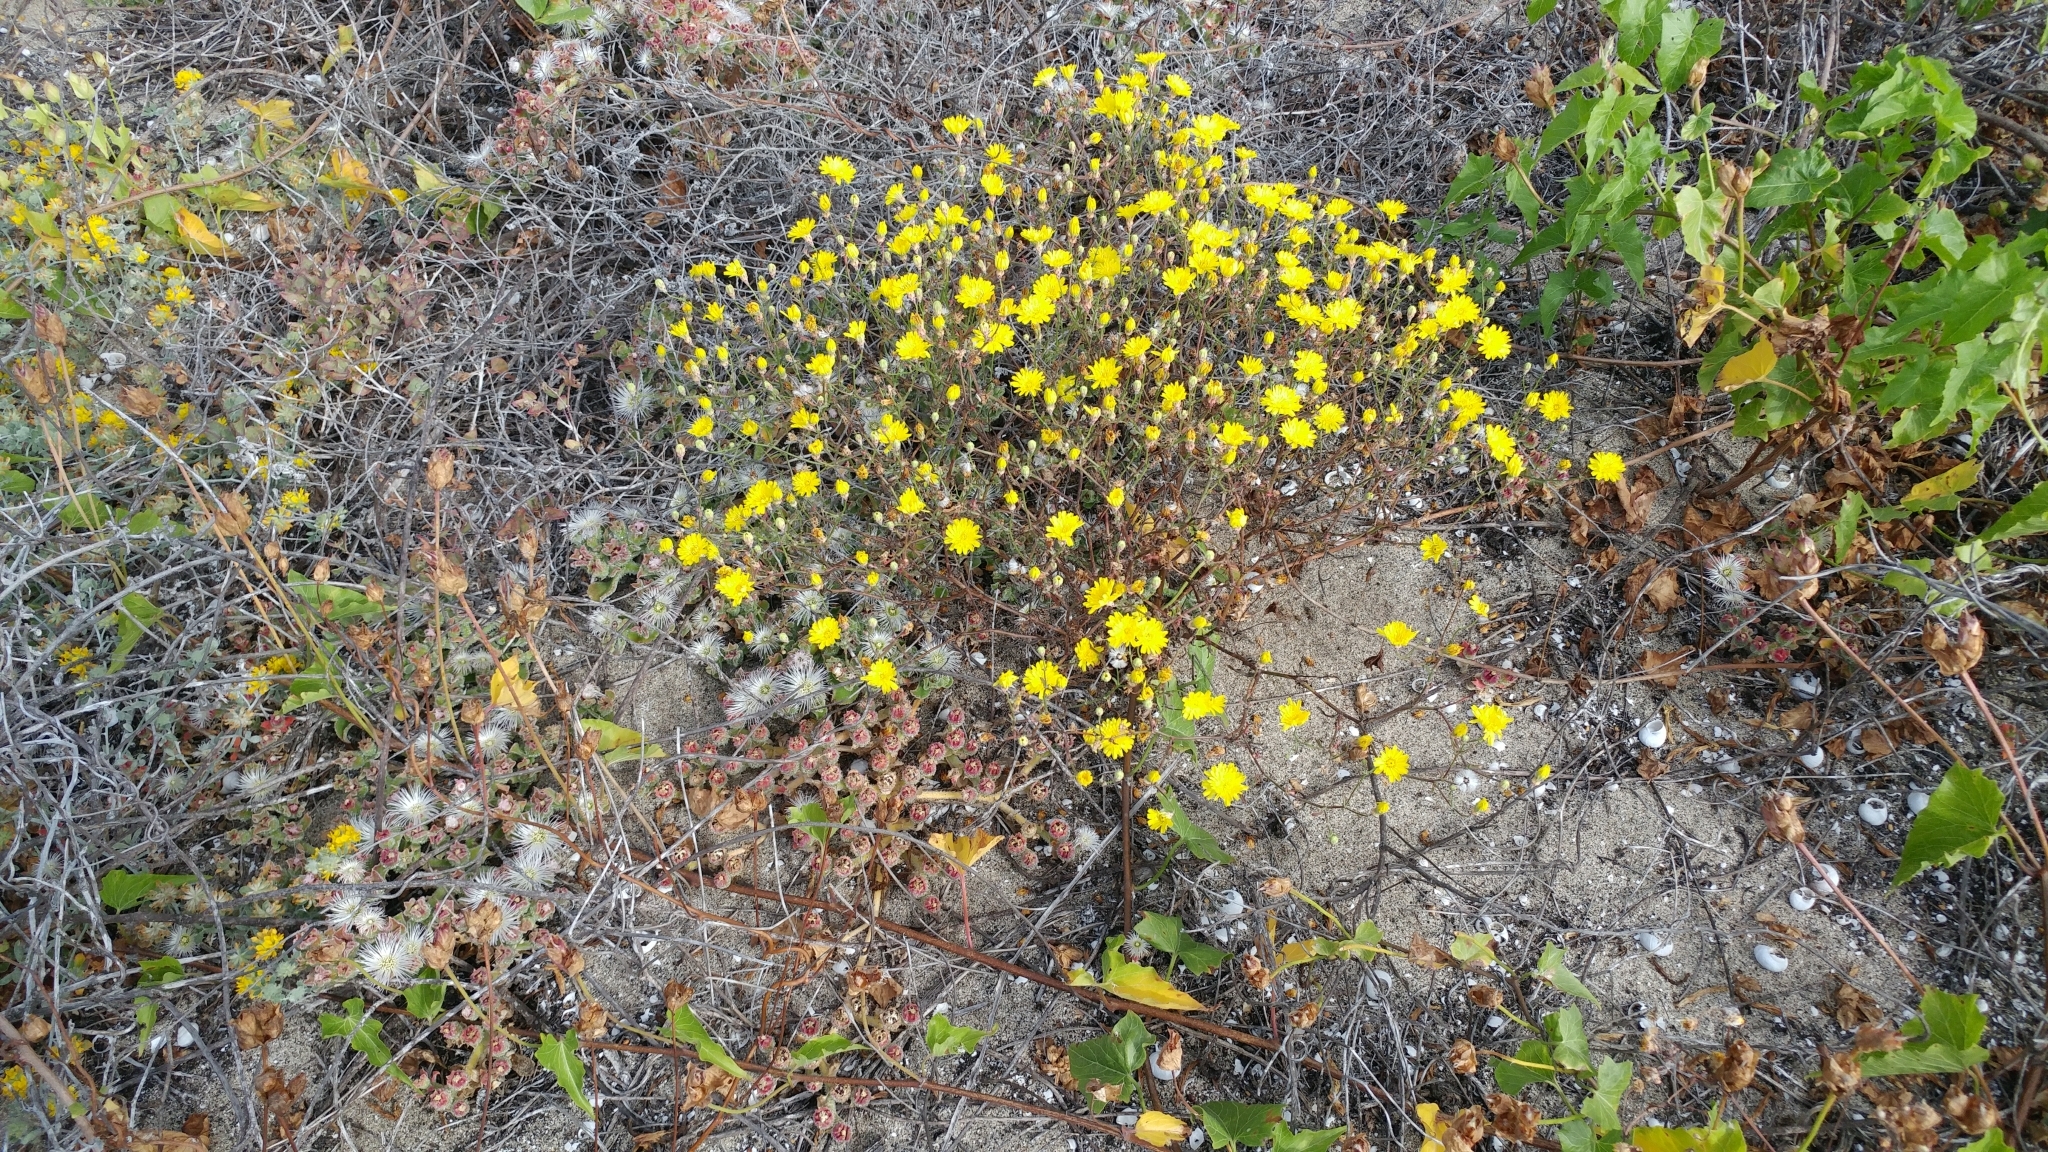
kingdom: Plantae
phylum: Tracheophyta
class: Magnoliopsida
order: Asterales
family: Asteraceae
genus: Malacothrix
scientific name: Malacothrix foliosa
